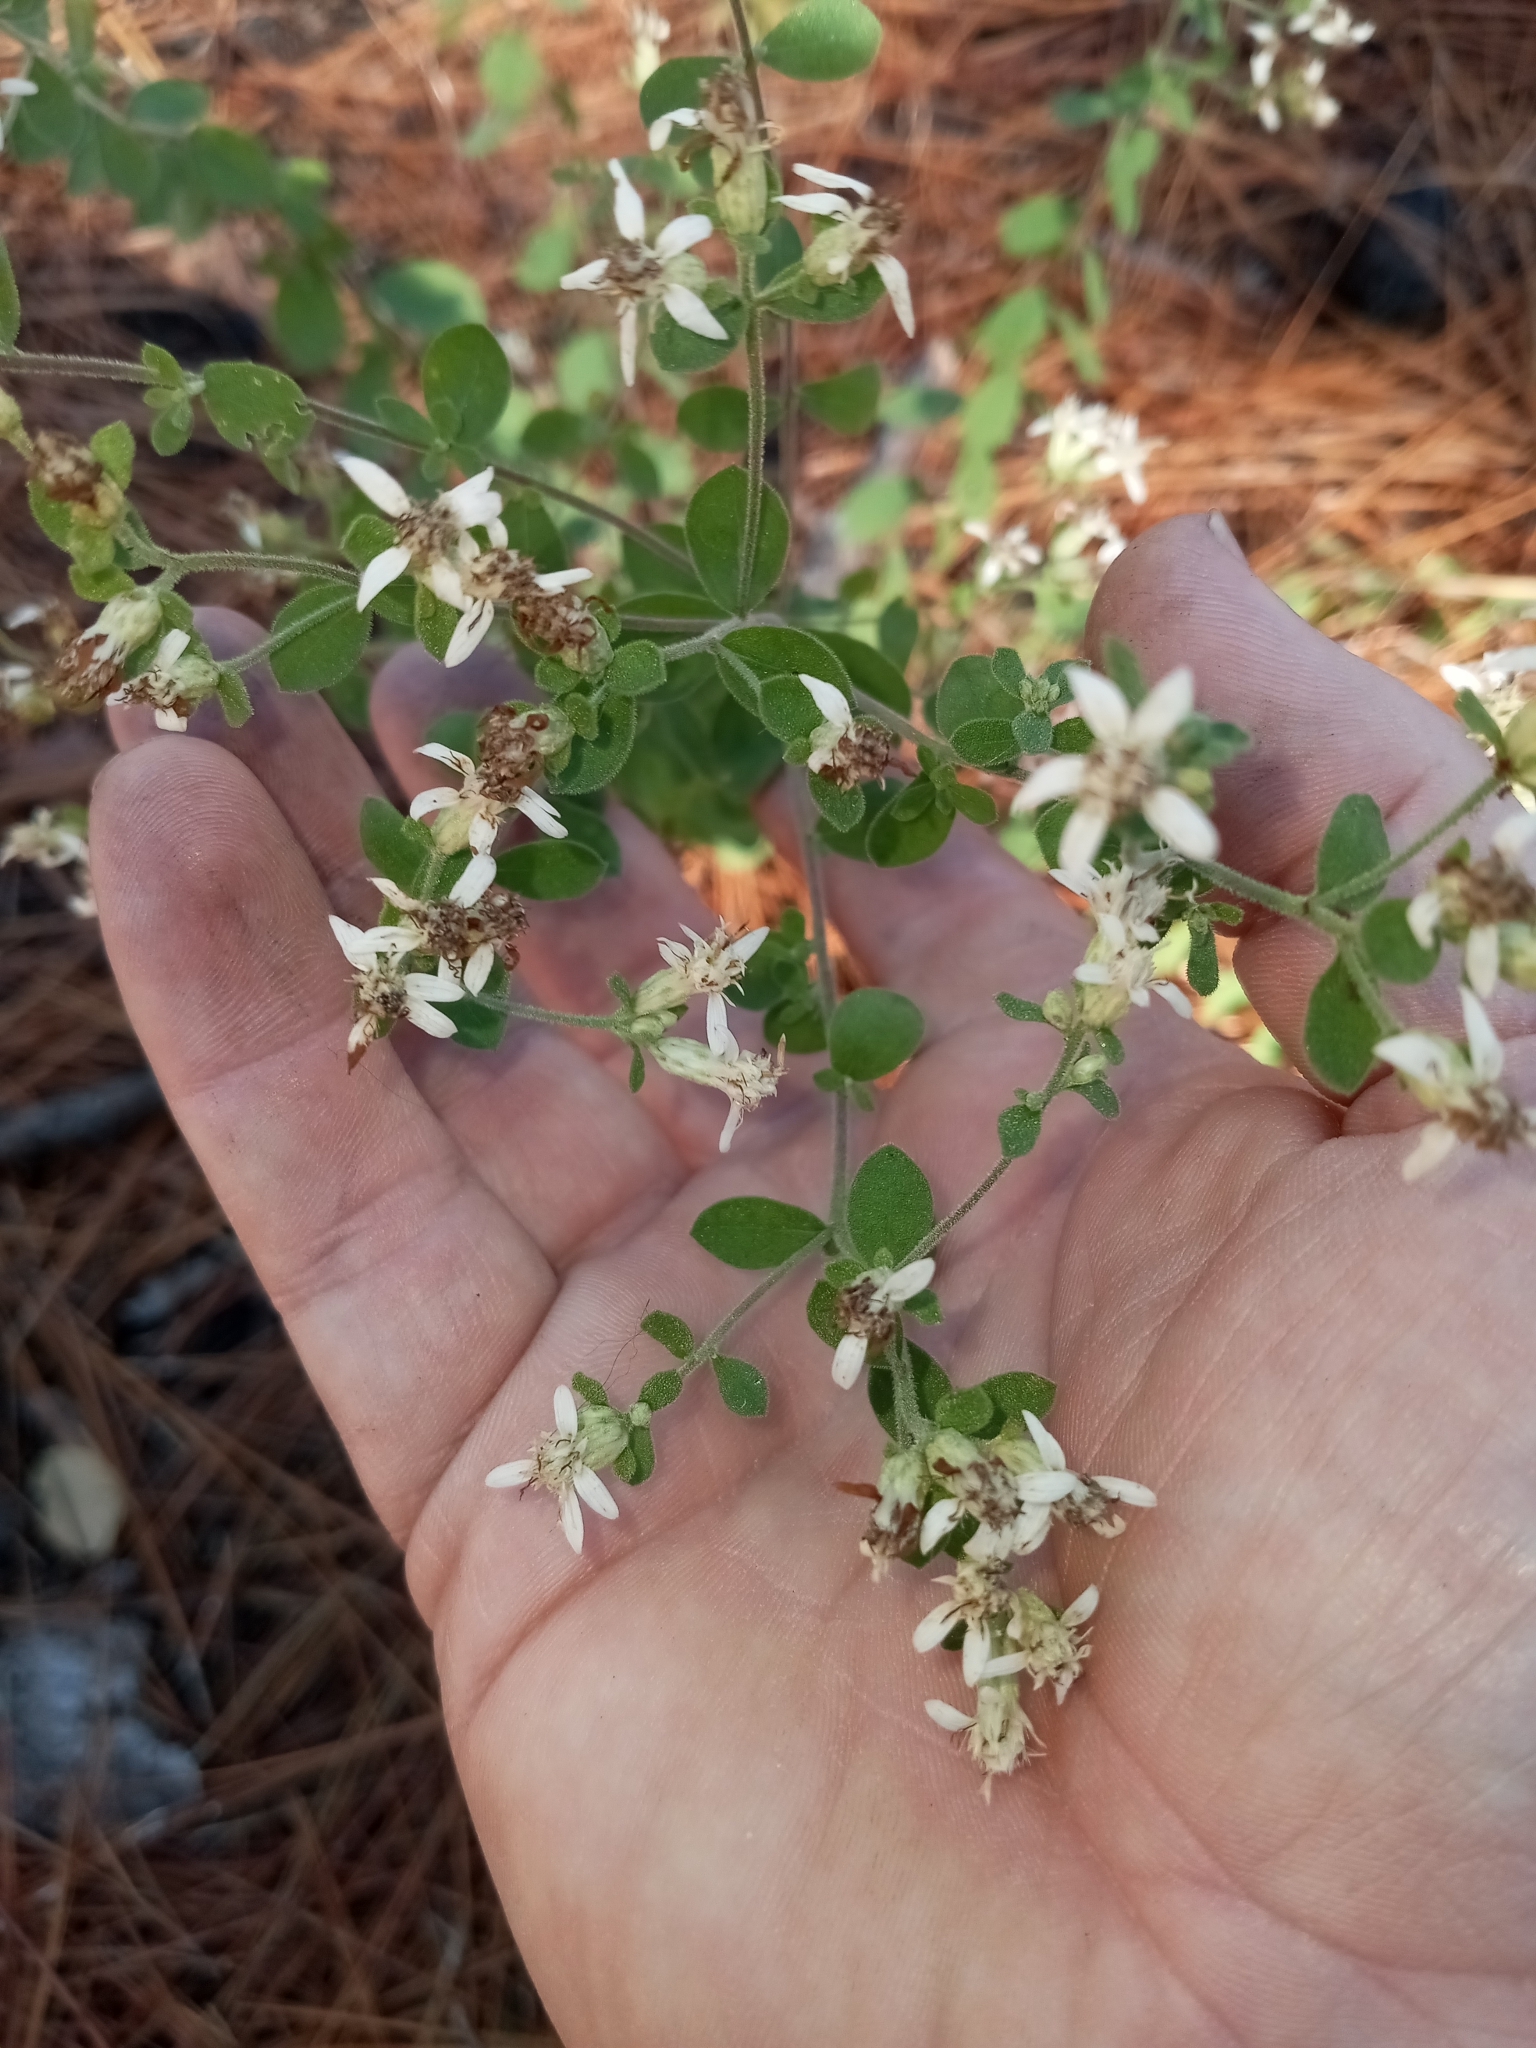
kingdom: Plantae
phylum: Tracheophyta
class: Magnoliopsida
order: Asterales
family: Asteraceae
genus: Sericocarpus
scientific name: Sericocarpus tortifolius
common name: Dixie aster
